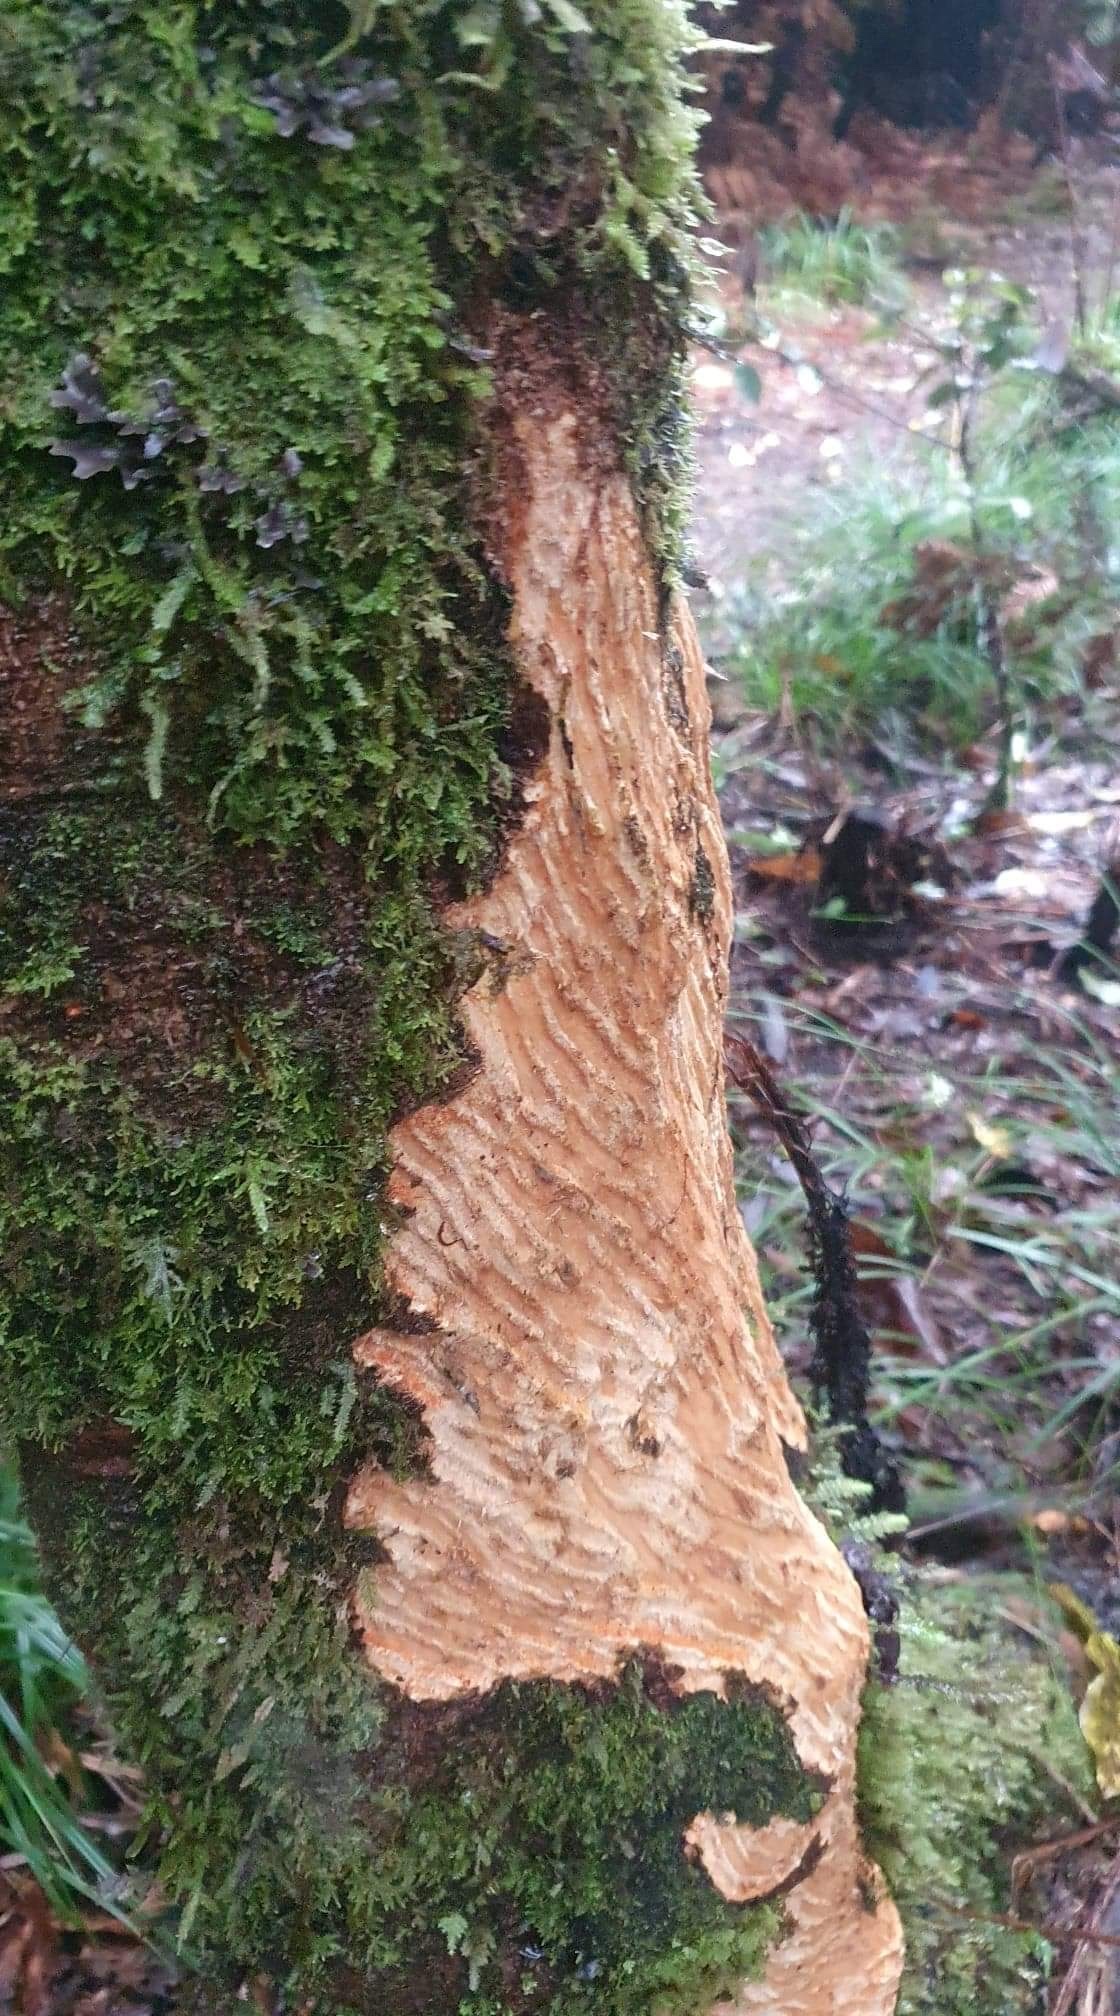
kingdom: Animalia
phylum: Chordata
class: Mammalia
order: Artiodactyla
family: Cervidae
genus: Cervus
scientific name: Cervus elaphus
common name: Red deer
